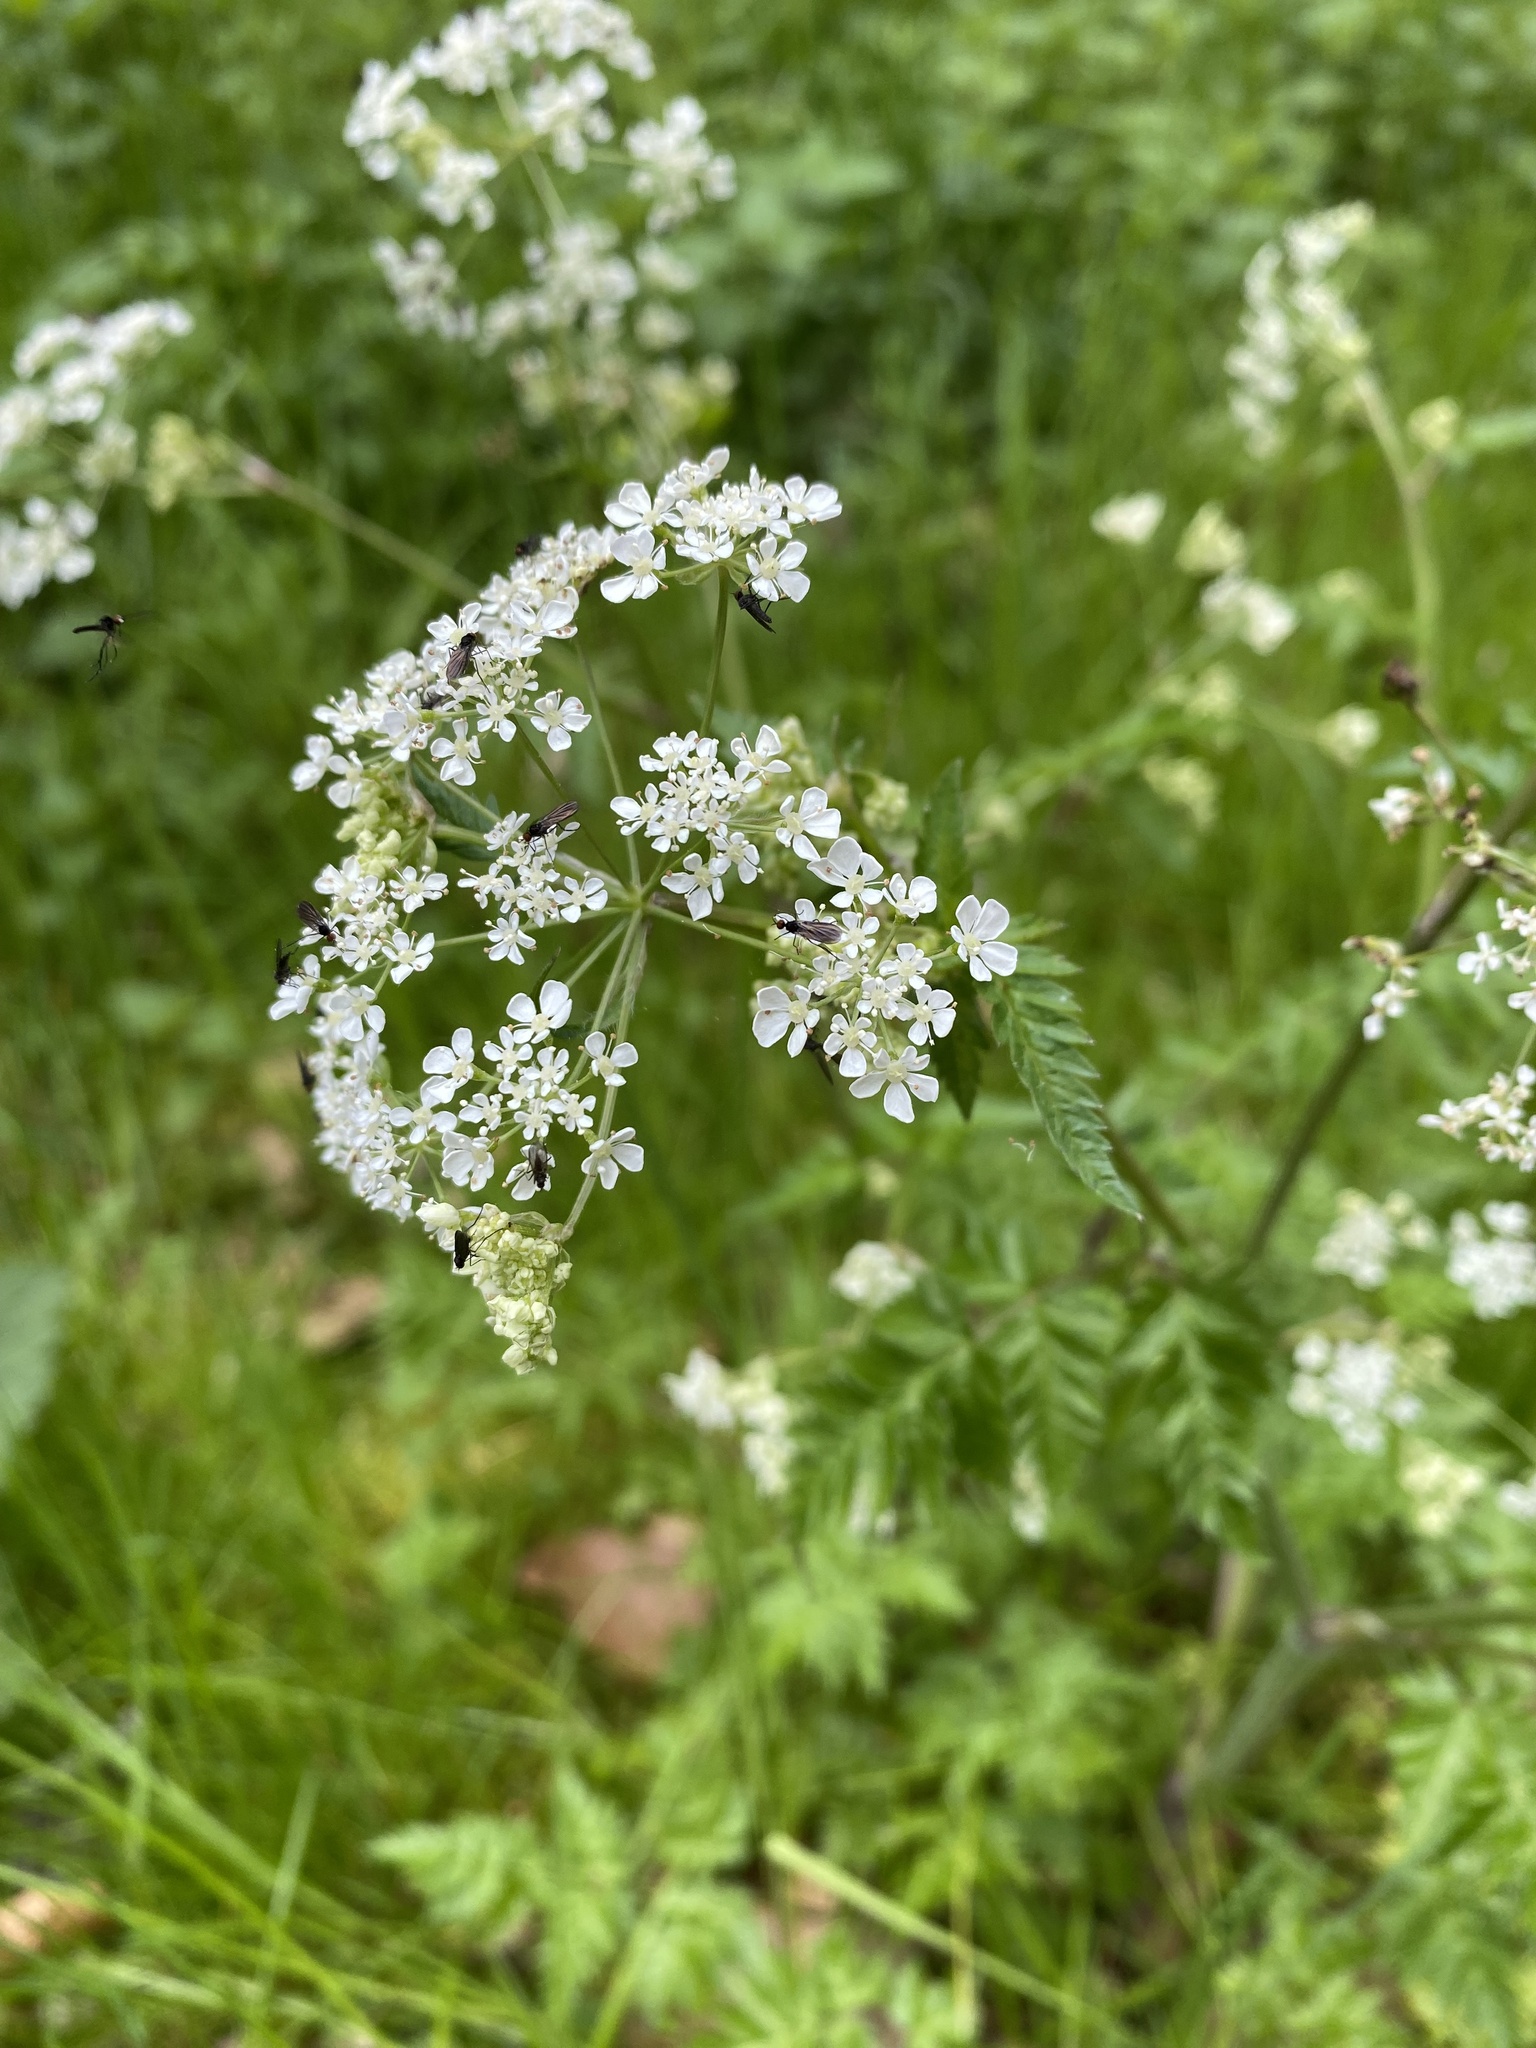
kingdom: Plantae
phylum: Tracheophyta
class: Magnoliopsida
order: Apiales
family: Apiaceae
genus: Anthriscus
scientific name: Anthriscus sylvestris
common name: Cow parsley
